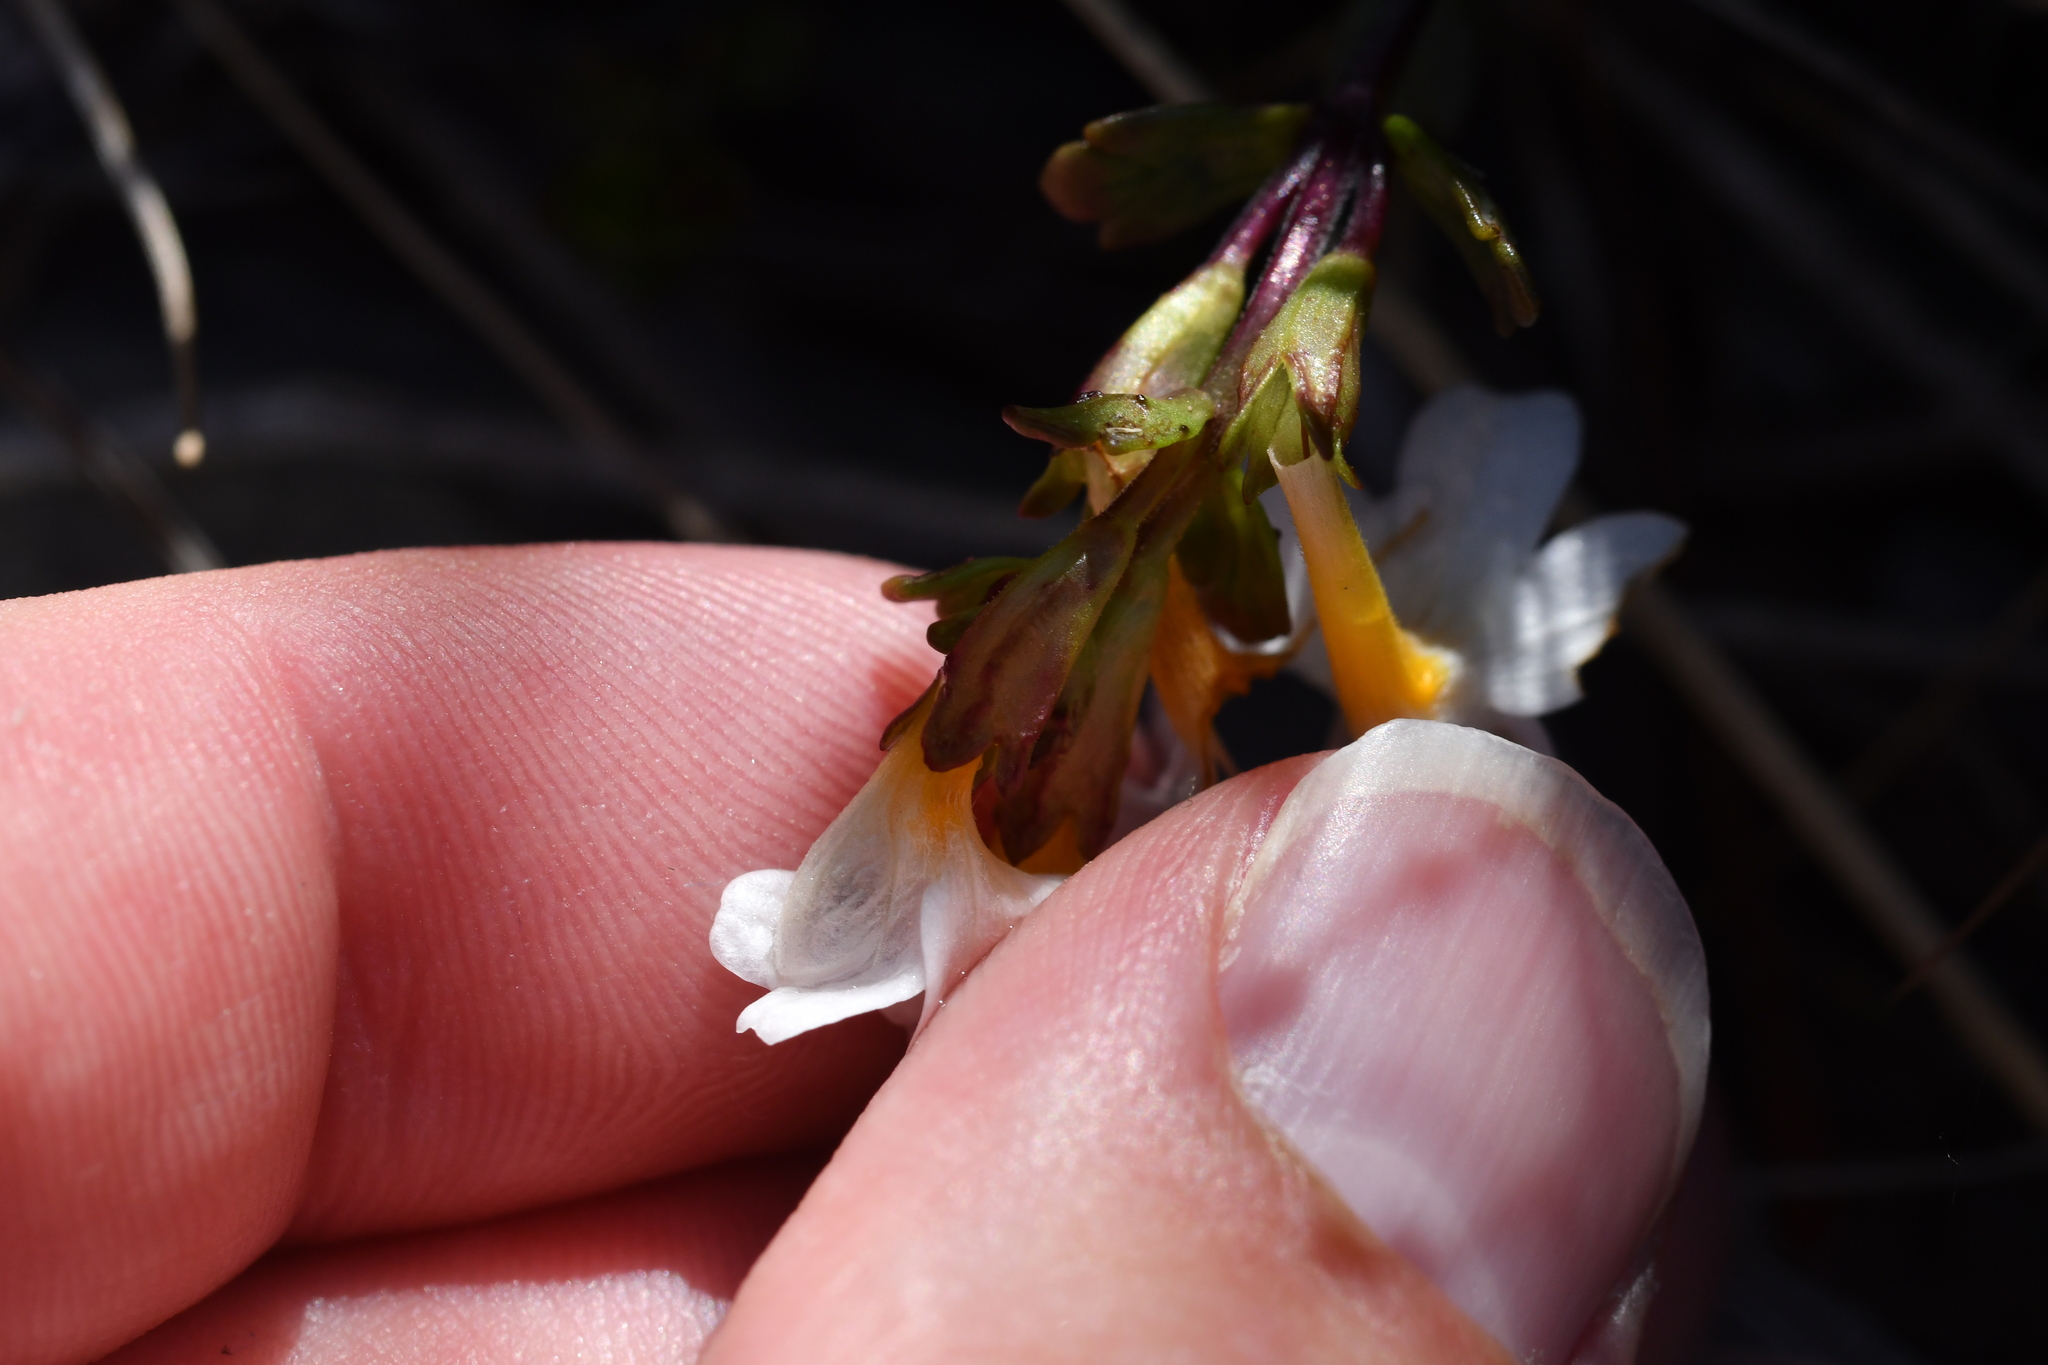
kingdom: Plantae
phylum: Tracheophyta
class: Magnoliopsida
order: Lamiales
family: Orobanchaceae
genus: Euphrasia
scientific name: Euphrasia laingii
